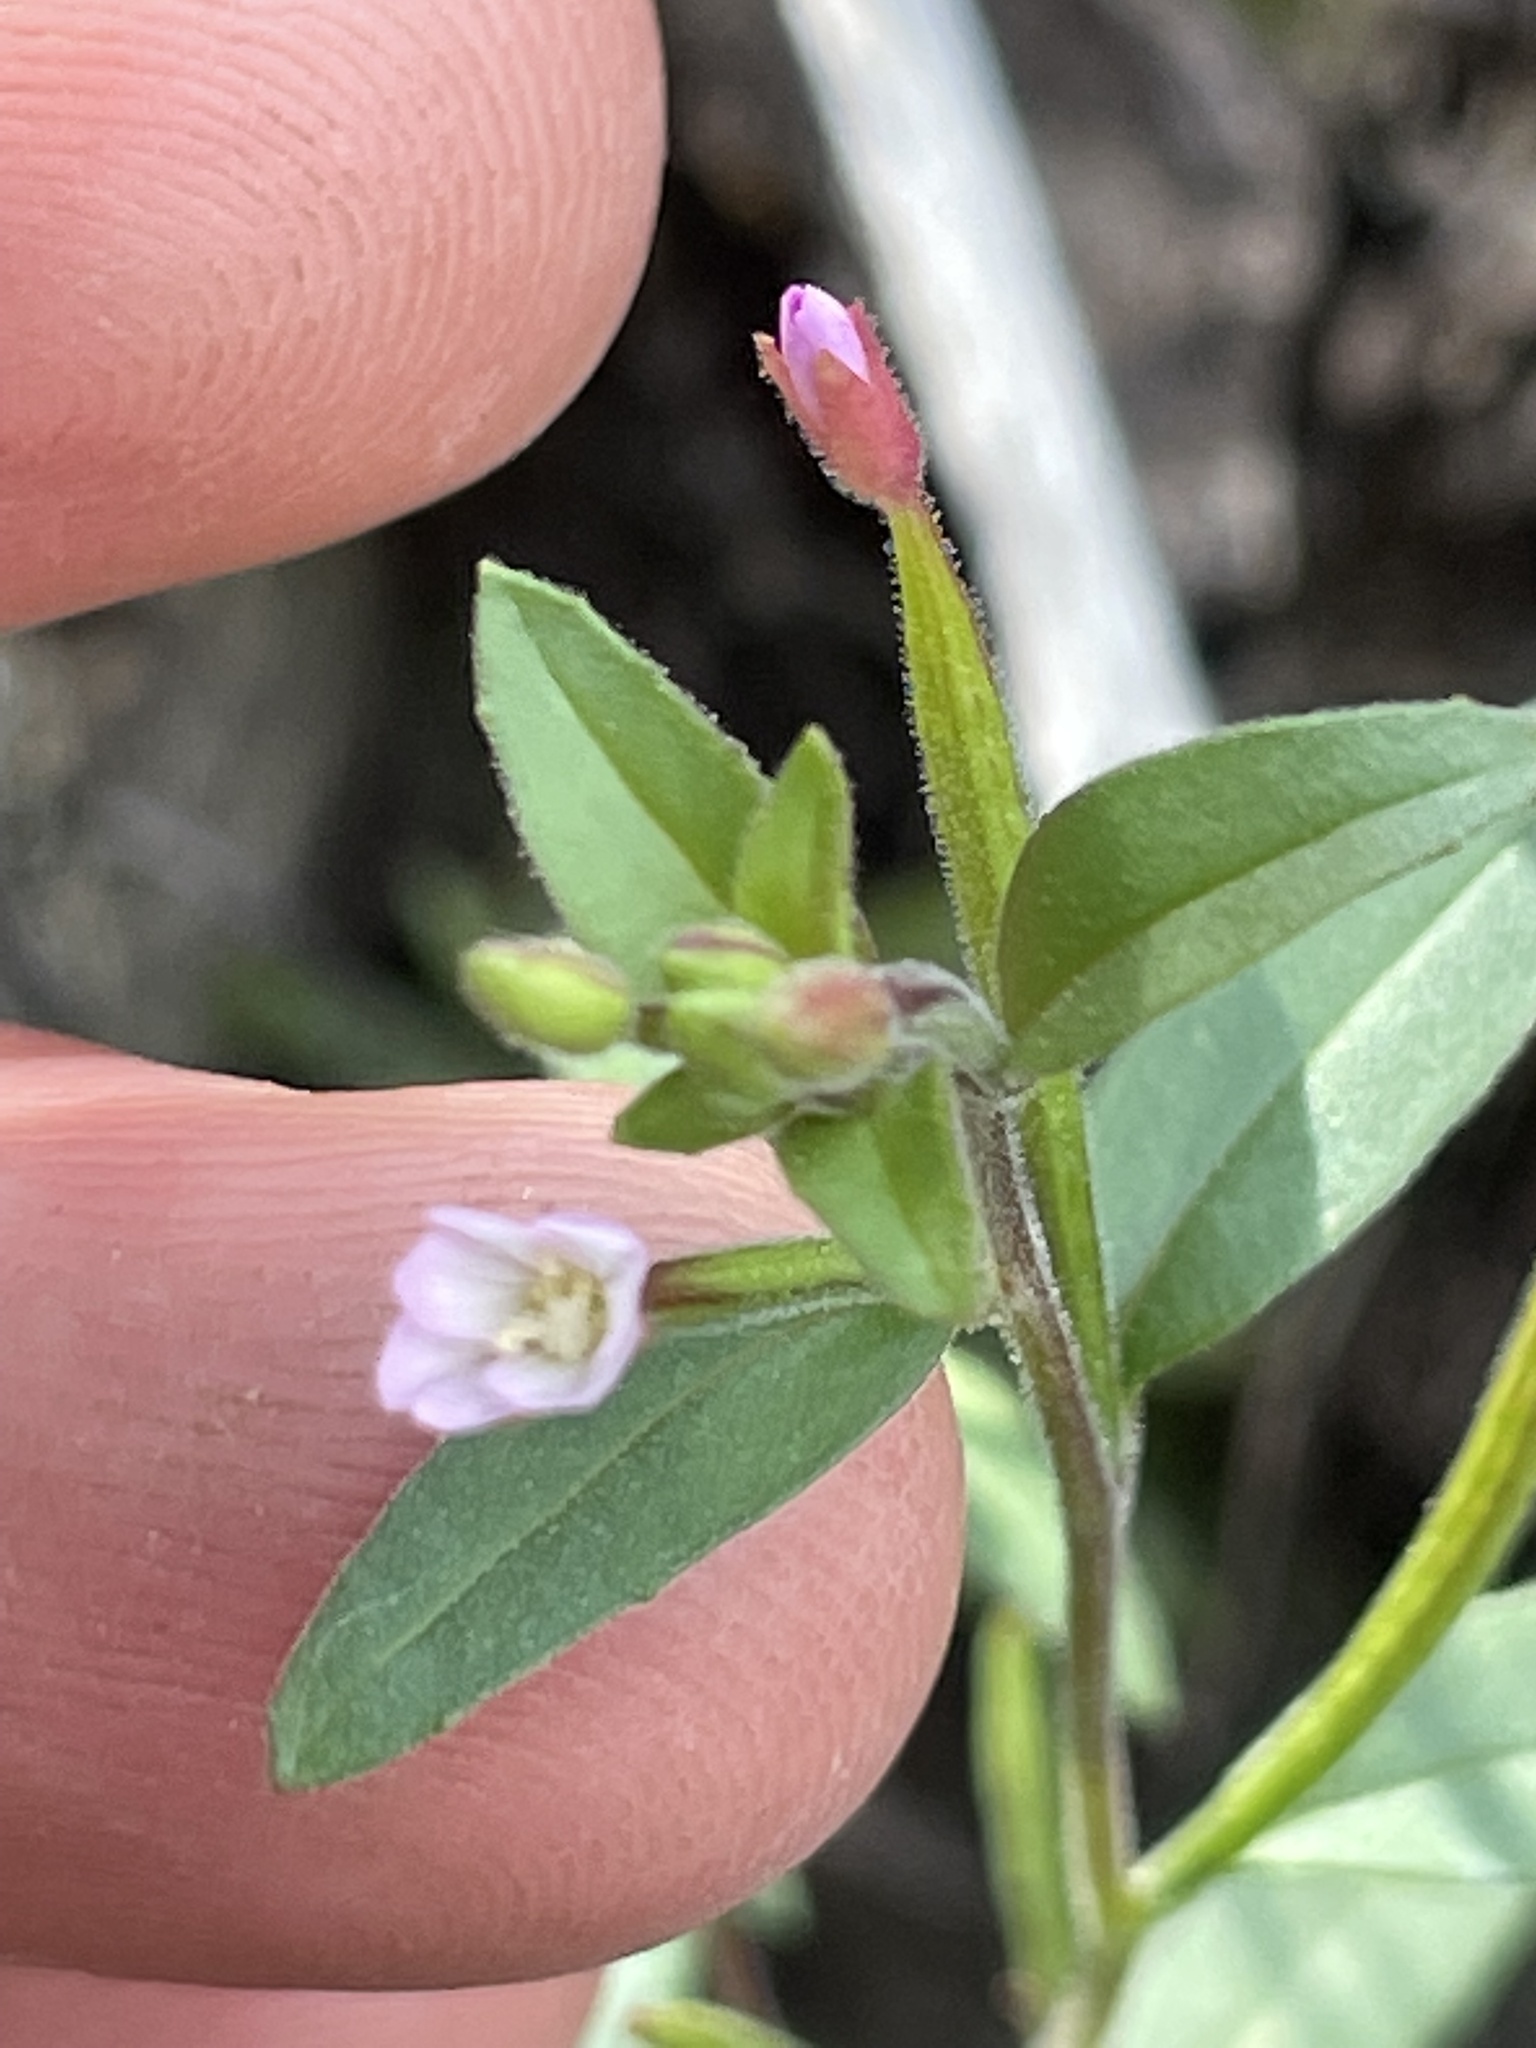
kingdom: Plantae
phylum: Tracheophyta
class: Magnoliopsida
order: Myrtales
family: Onagraceae
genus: Epilobium
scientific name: Epilobium minutum
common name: Chaparral willowherb
